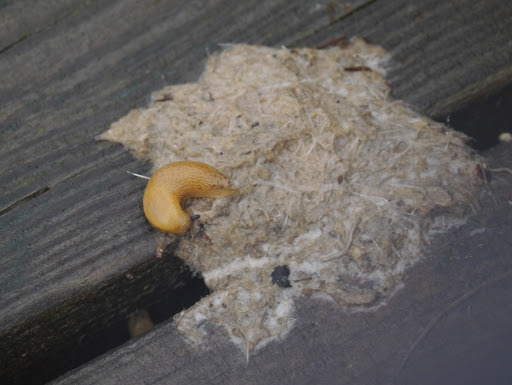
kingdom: Animalia
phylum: Mollusca
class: Gastropoda
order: Stylommatophora
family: Arionidae
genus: Arion
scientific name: Arion subfuscus
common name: Dusky arion
